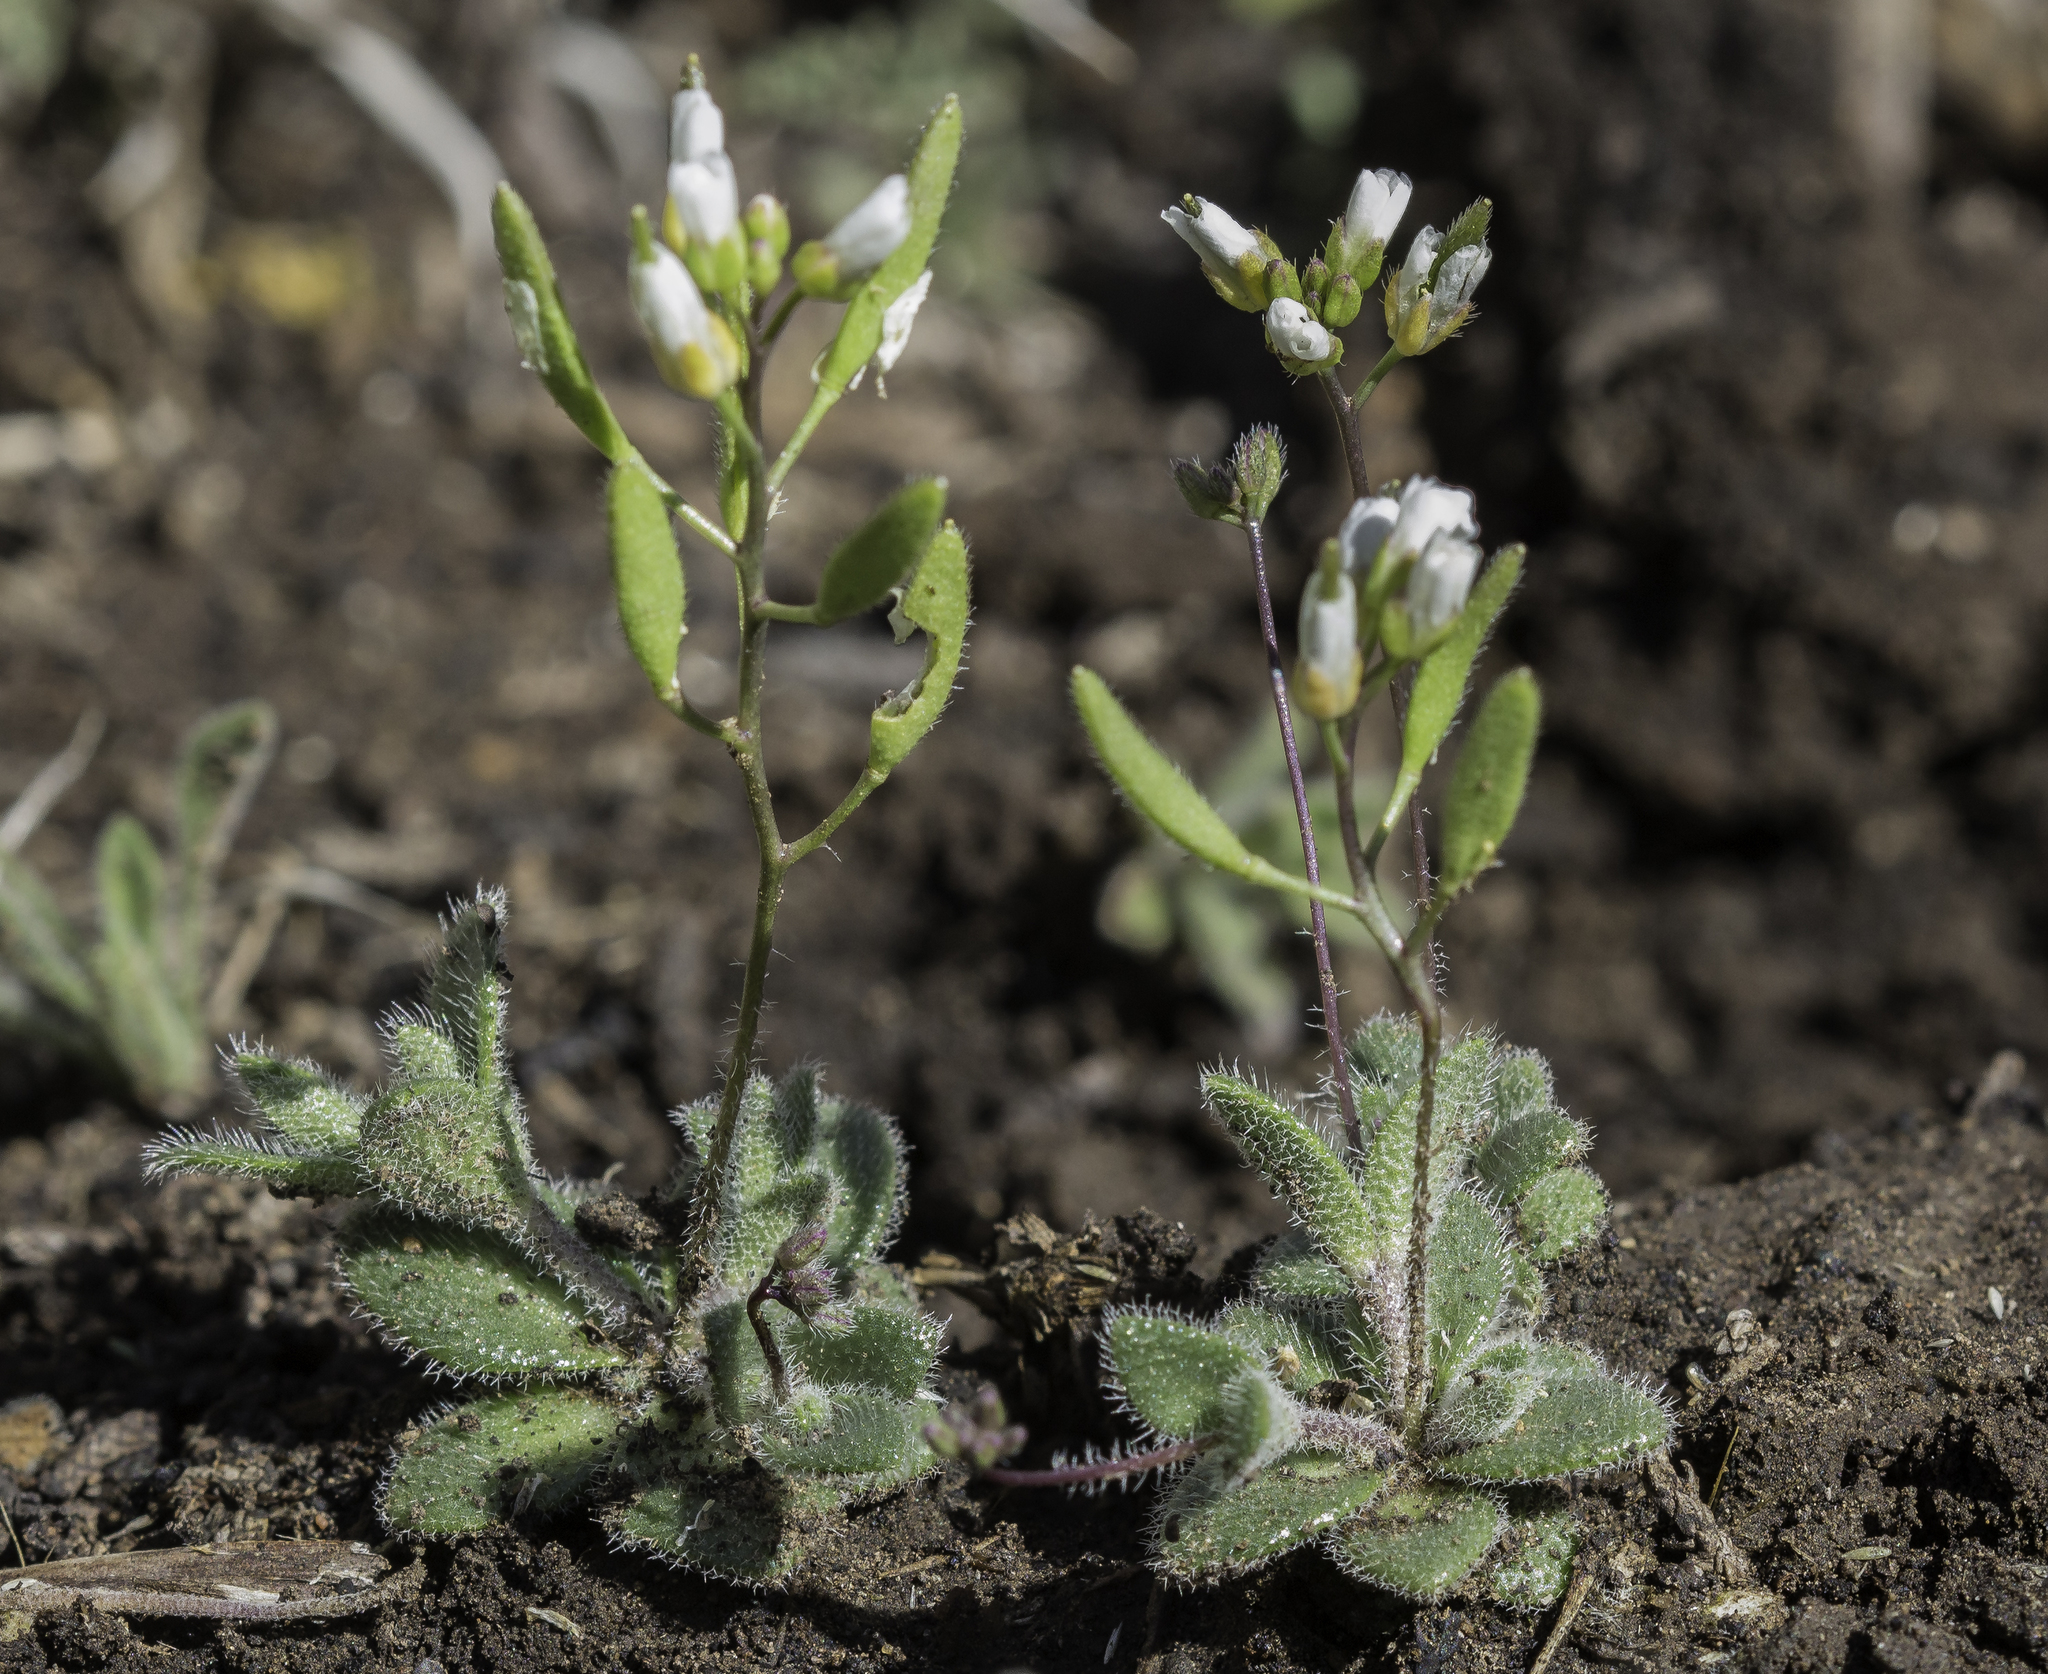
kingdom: Plantae
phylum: Tracheophyta
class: Magnoliopsida
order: Brassicales
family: Brassicaceae
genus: Tomostima
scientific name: Tomostima reptans
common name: Carolina draba
